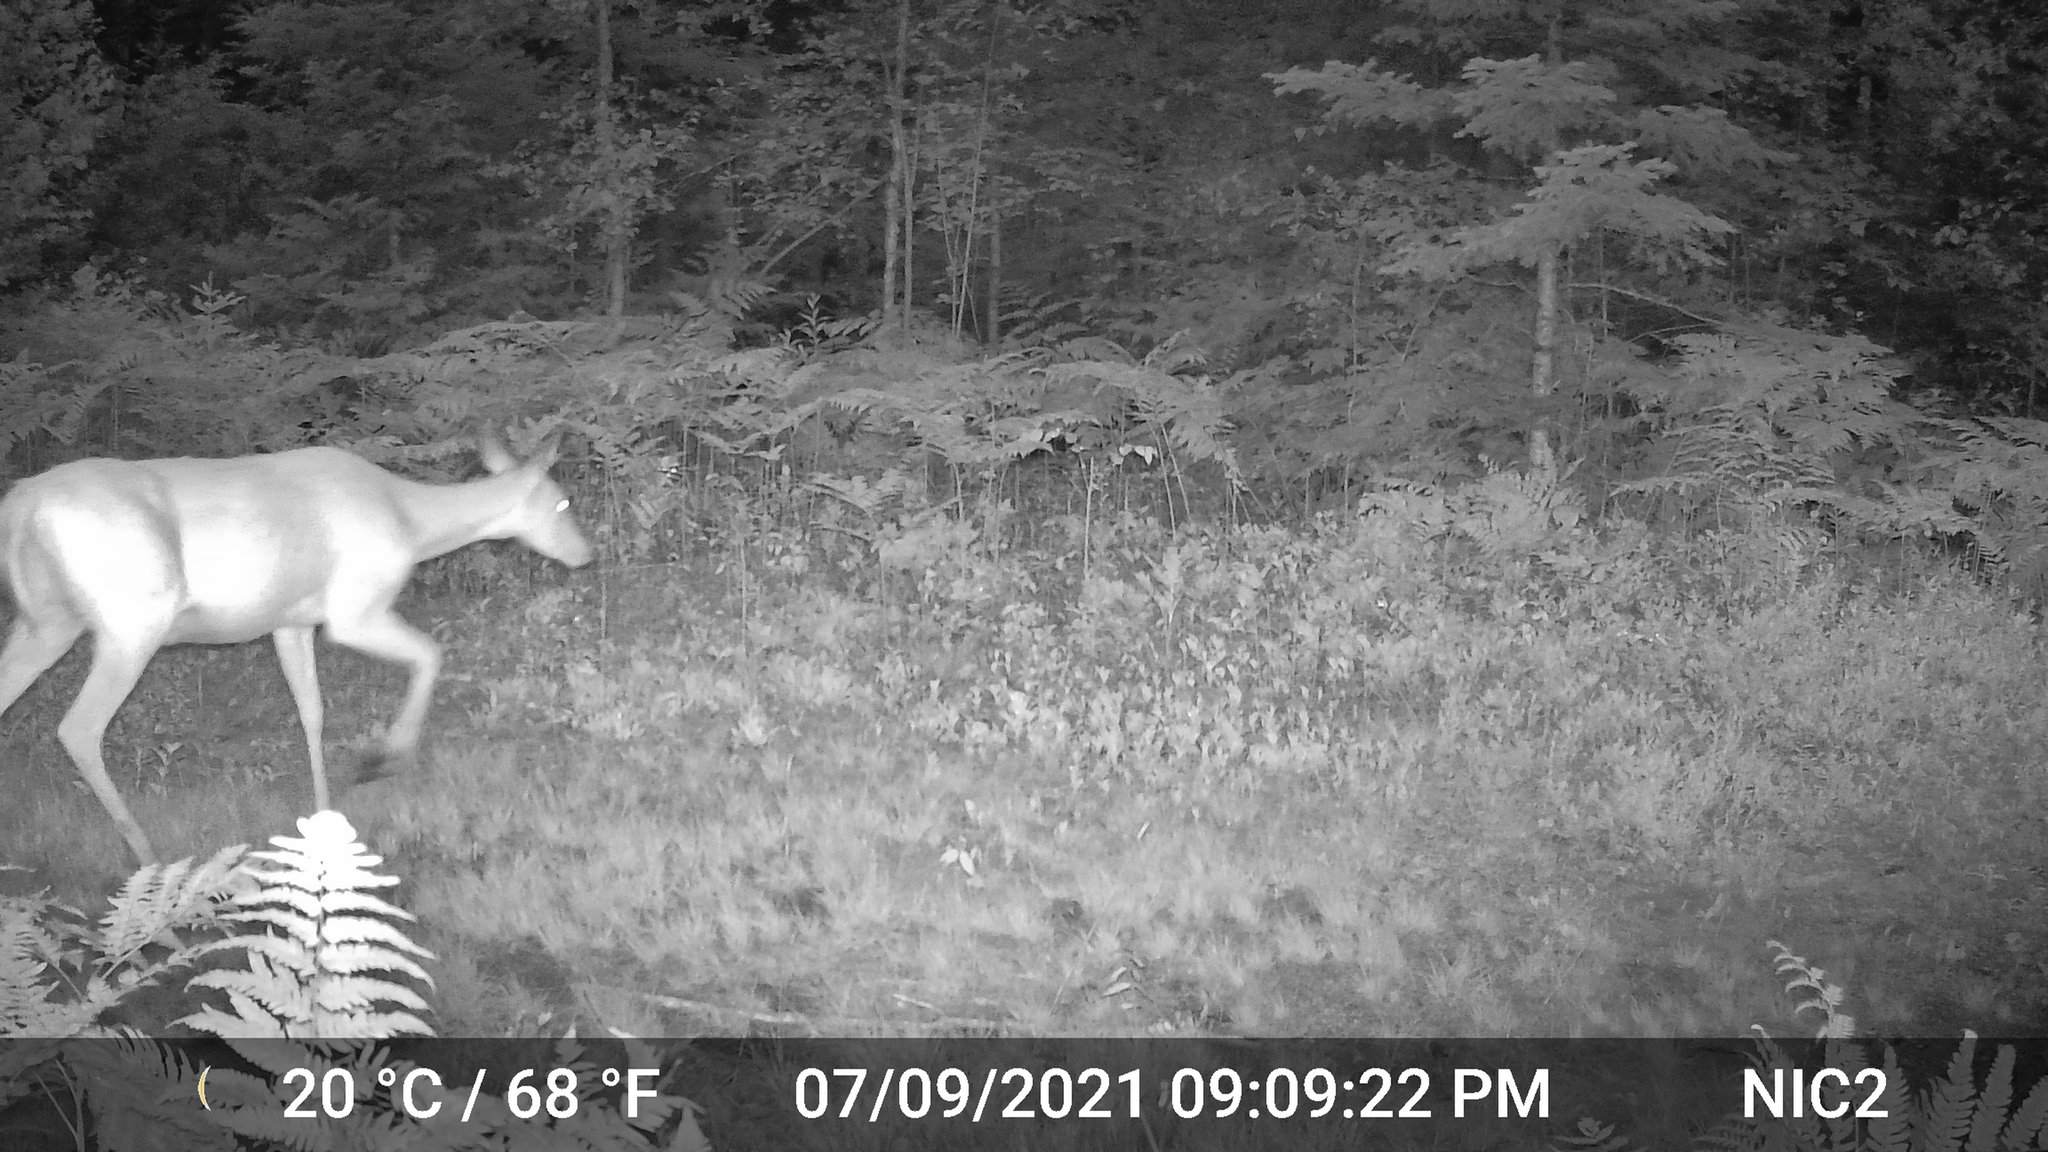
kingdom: Animalia
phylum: Chordata
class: Mammalia
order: Artiodactyla
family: Cervidae
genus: Odocoileus
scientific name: Odocoileus virginianus
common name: White-tailed deer
